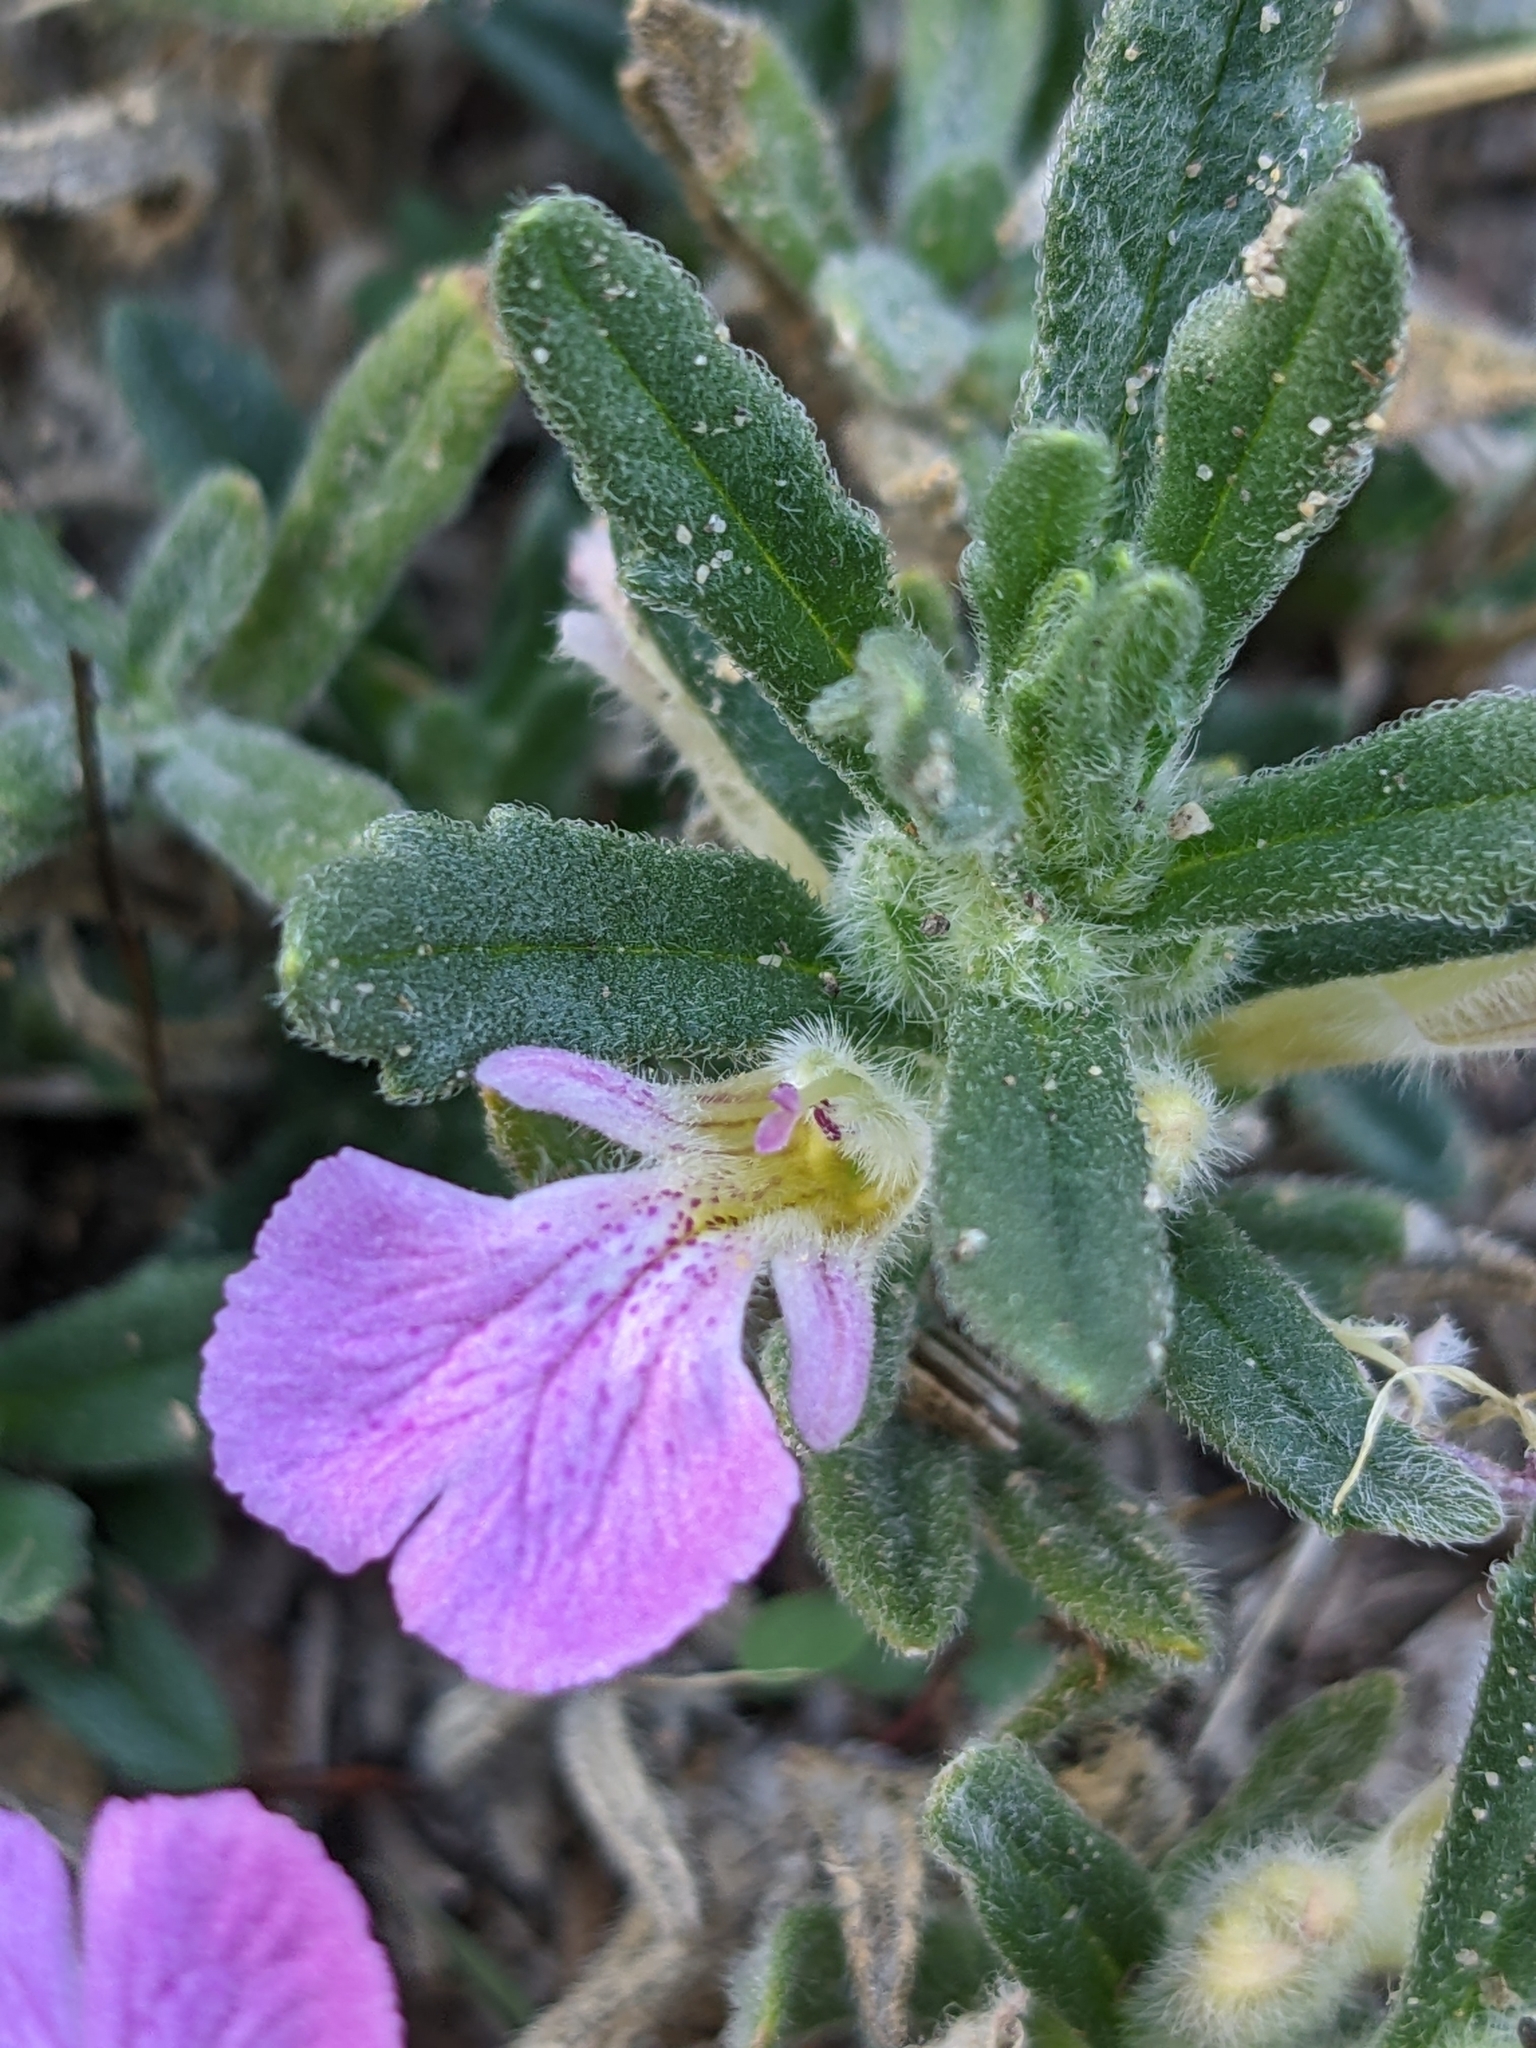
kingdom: Plantae
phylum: Tracheophyta
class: Magnoliopsida
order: Lamiales
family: Lamiaceae
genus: Ajuga
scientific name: Ajuga iva
